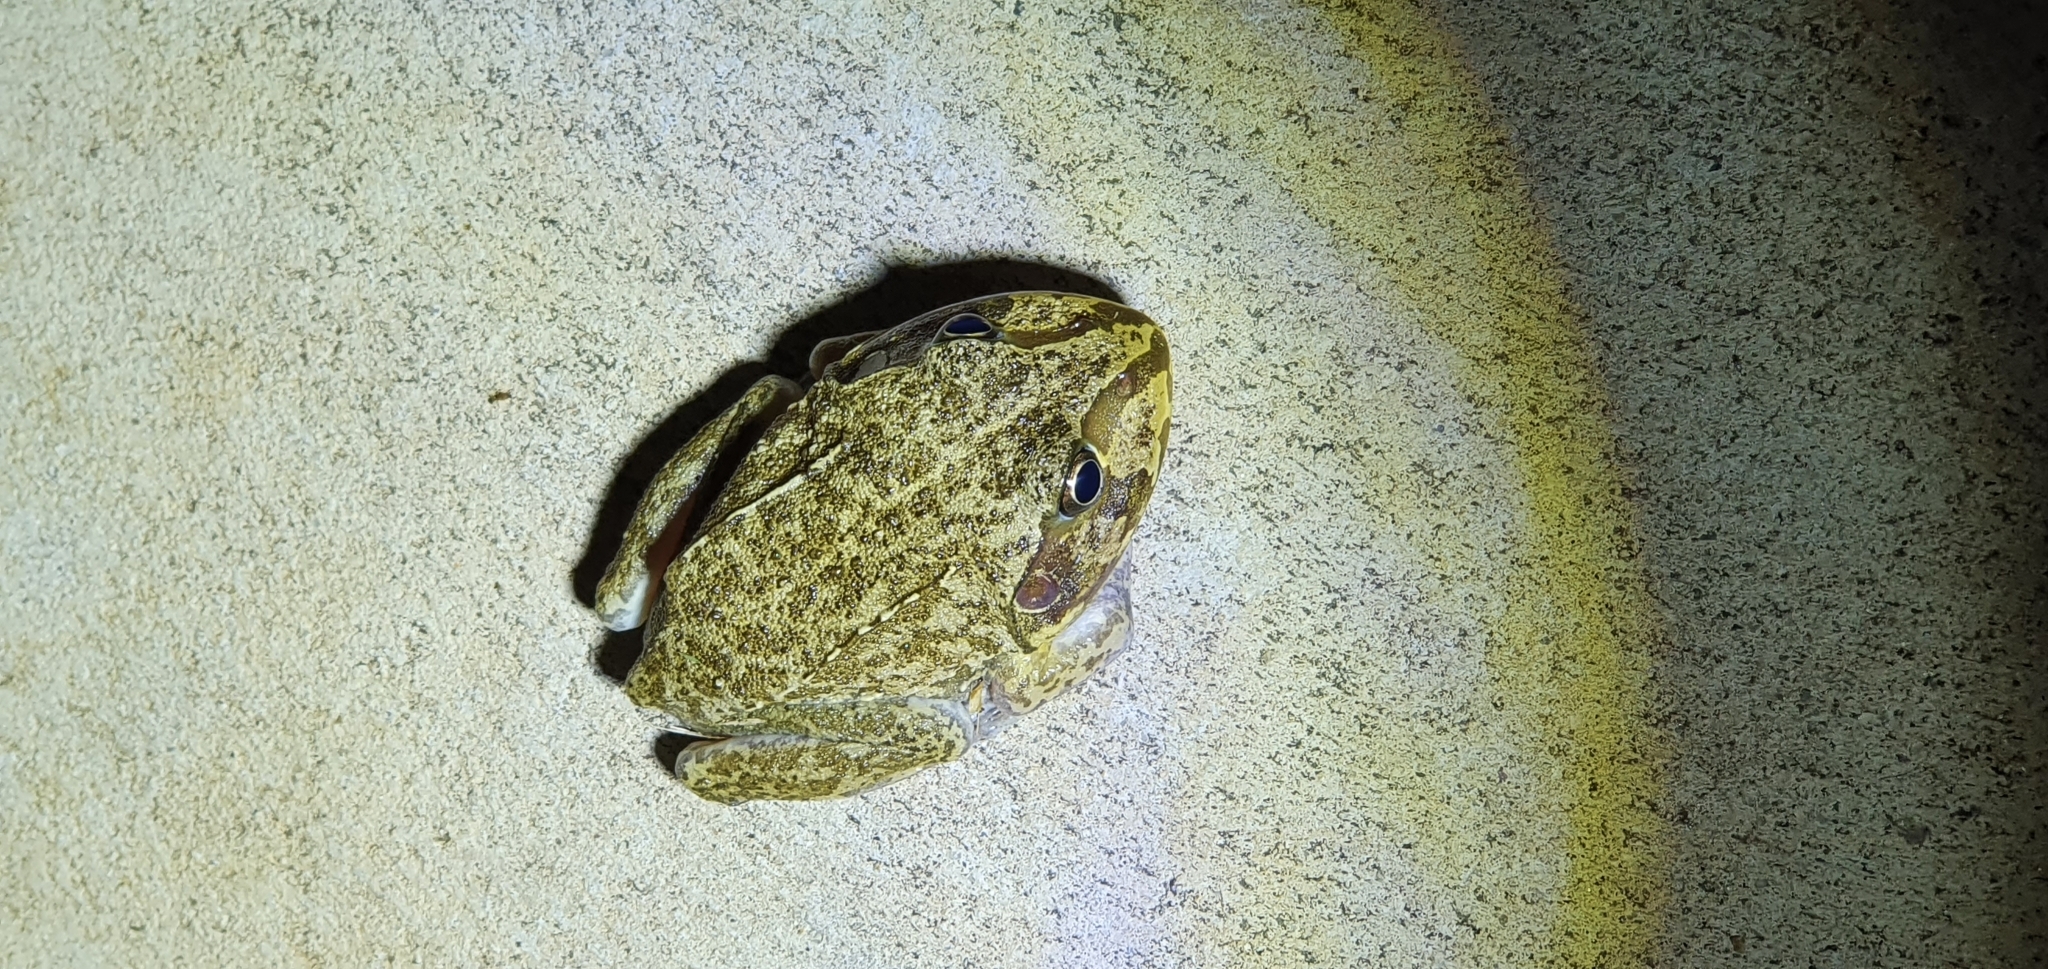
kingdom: Animalia
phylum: Chordata
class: Amphibia
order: Anura
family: Pelodryadidae
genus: Ranoidea
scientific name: Ranoidea novaehollandiae
